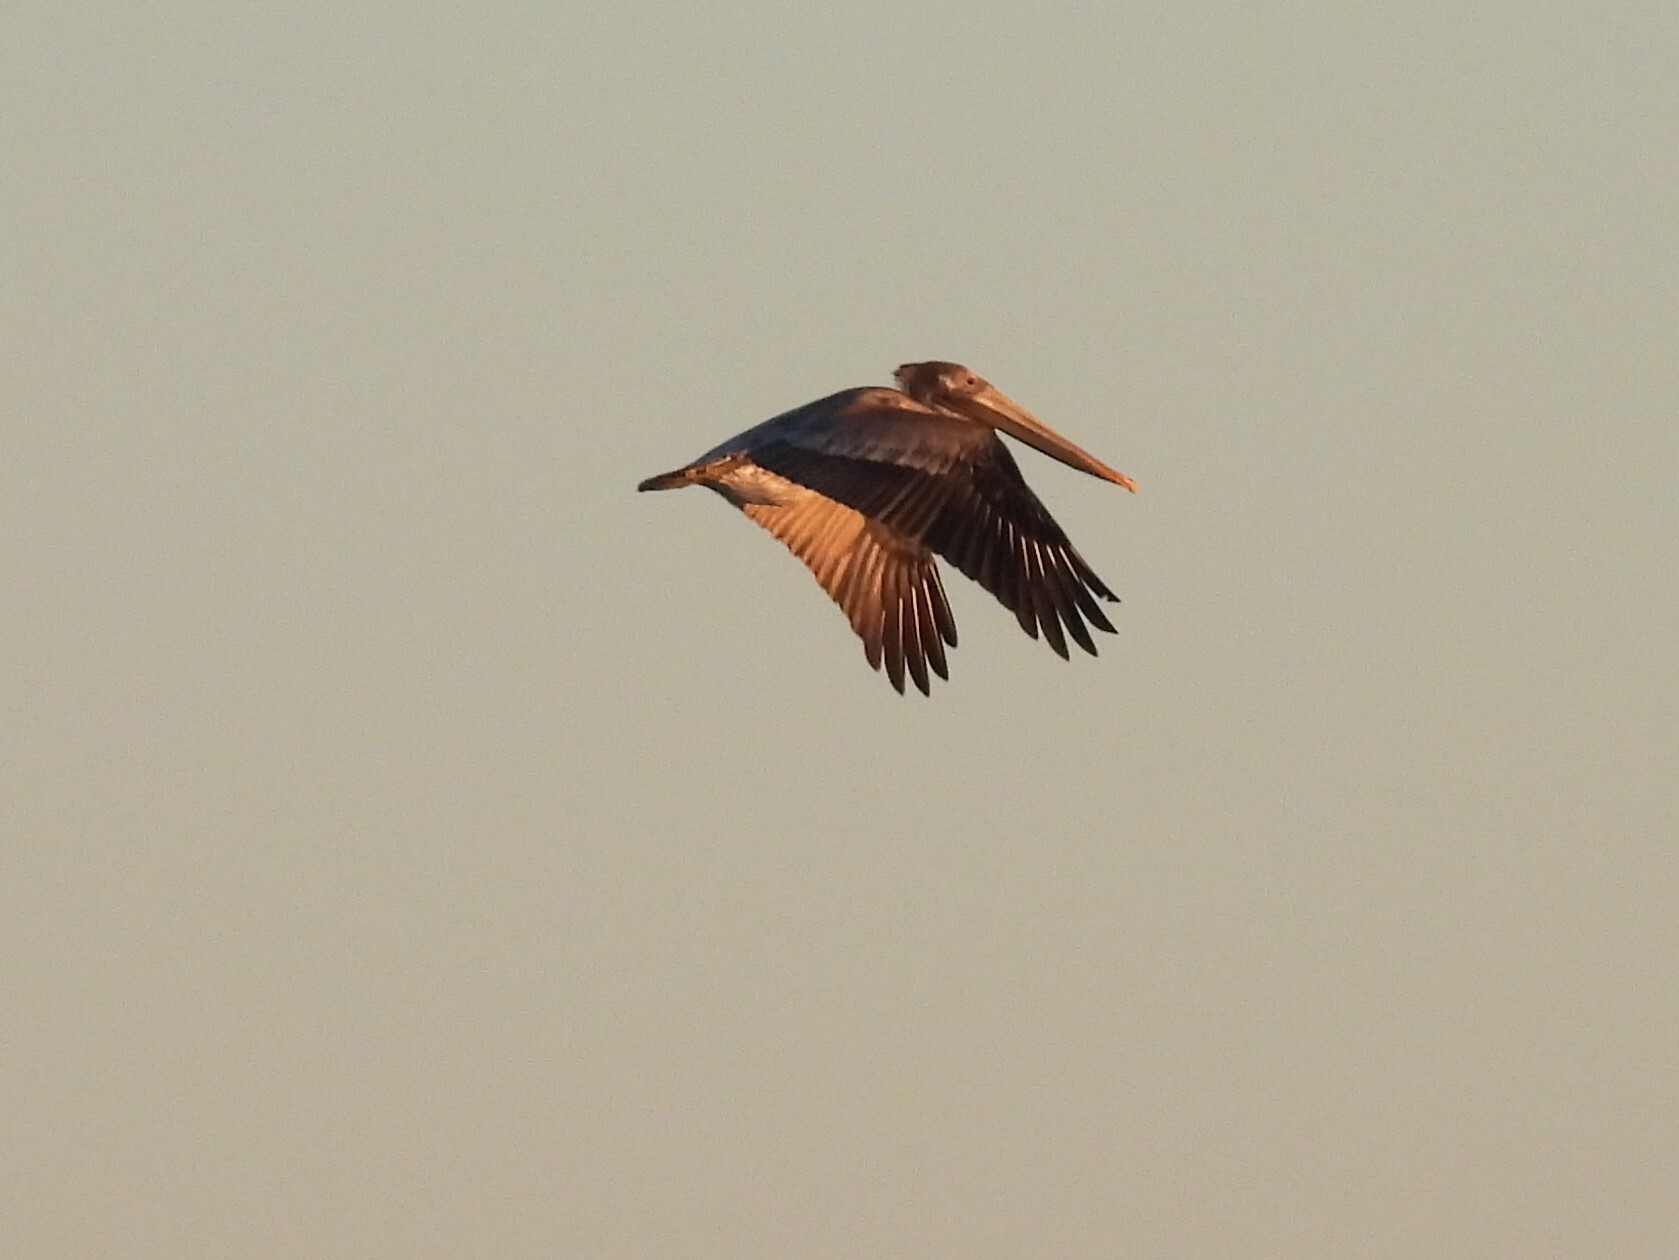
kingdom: Animalia
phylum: Chordata
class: Aves
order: Pelecaniformes
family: Pelecanidae
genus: Pelecanus
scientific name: Pelecanus occidentalis
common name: Brown pelican
